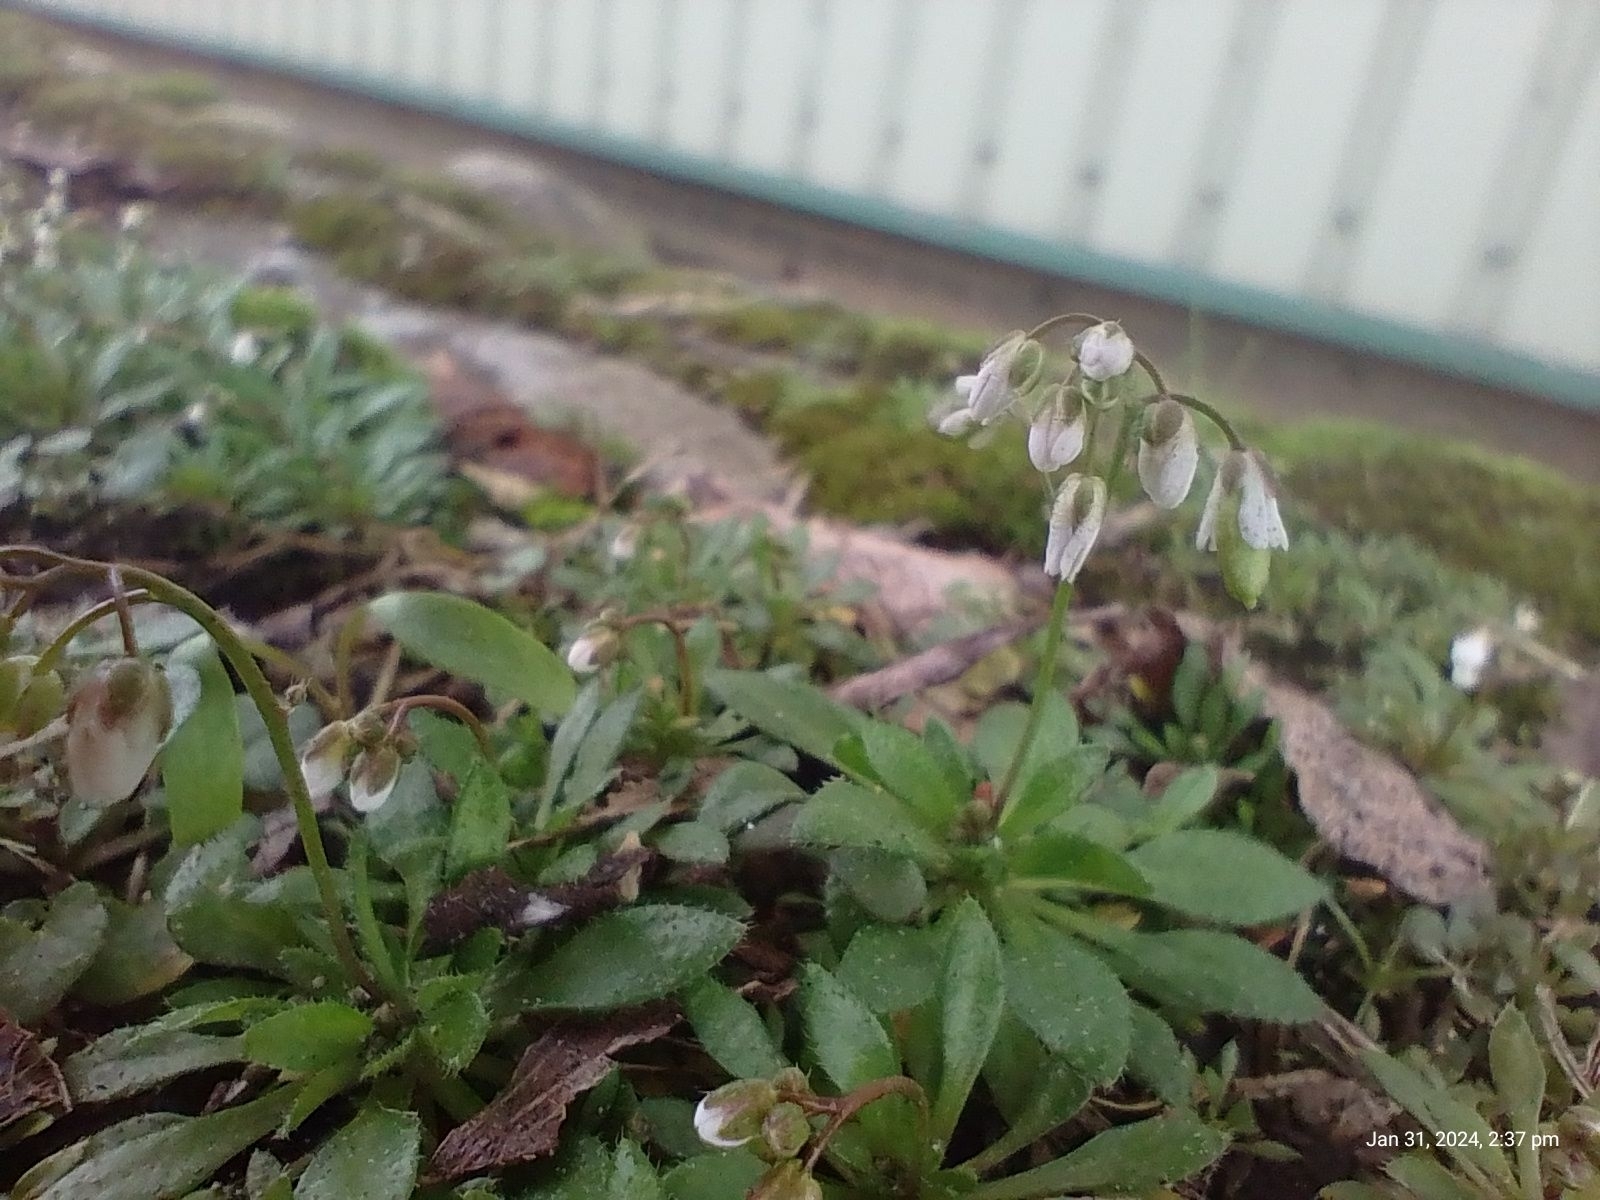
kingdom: Plantae
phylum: Tracheophyta
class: Magnoliopsida
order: Brassicales
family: Brassicaceae
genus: Draba
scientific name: Draba verna
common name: Spring draba
